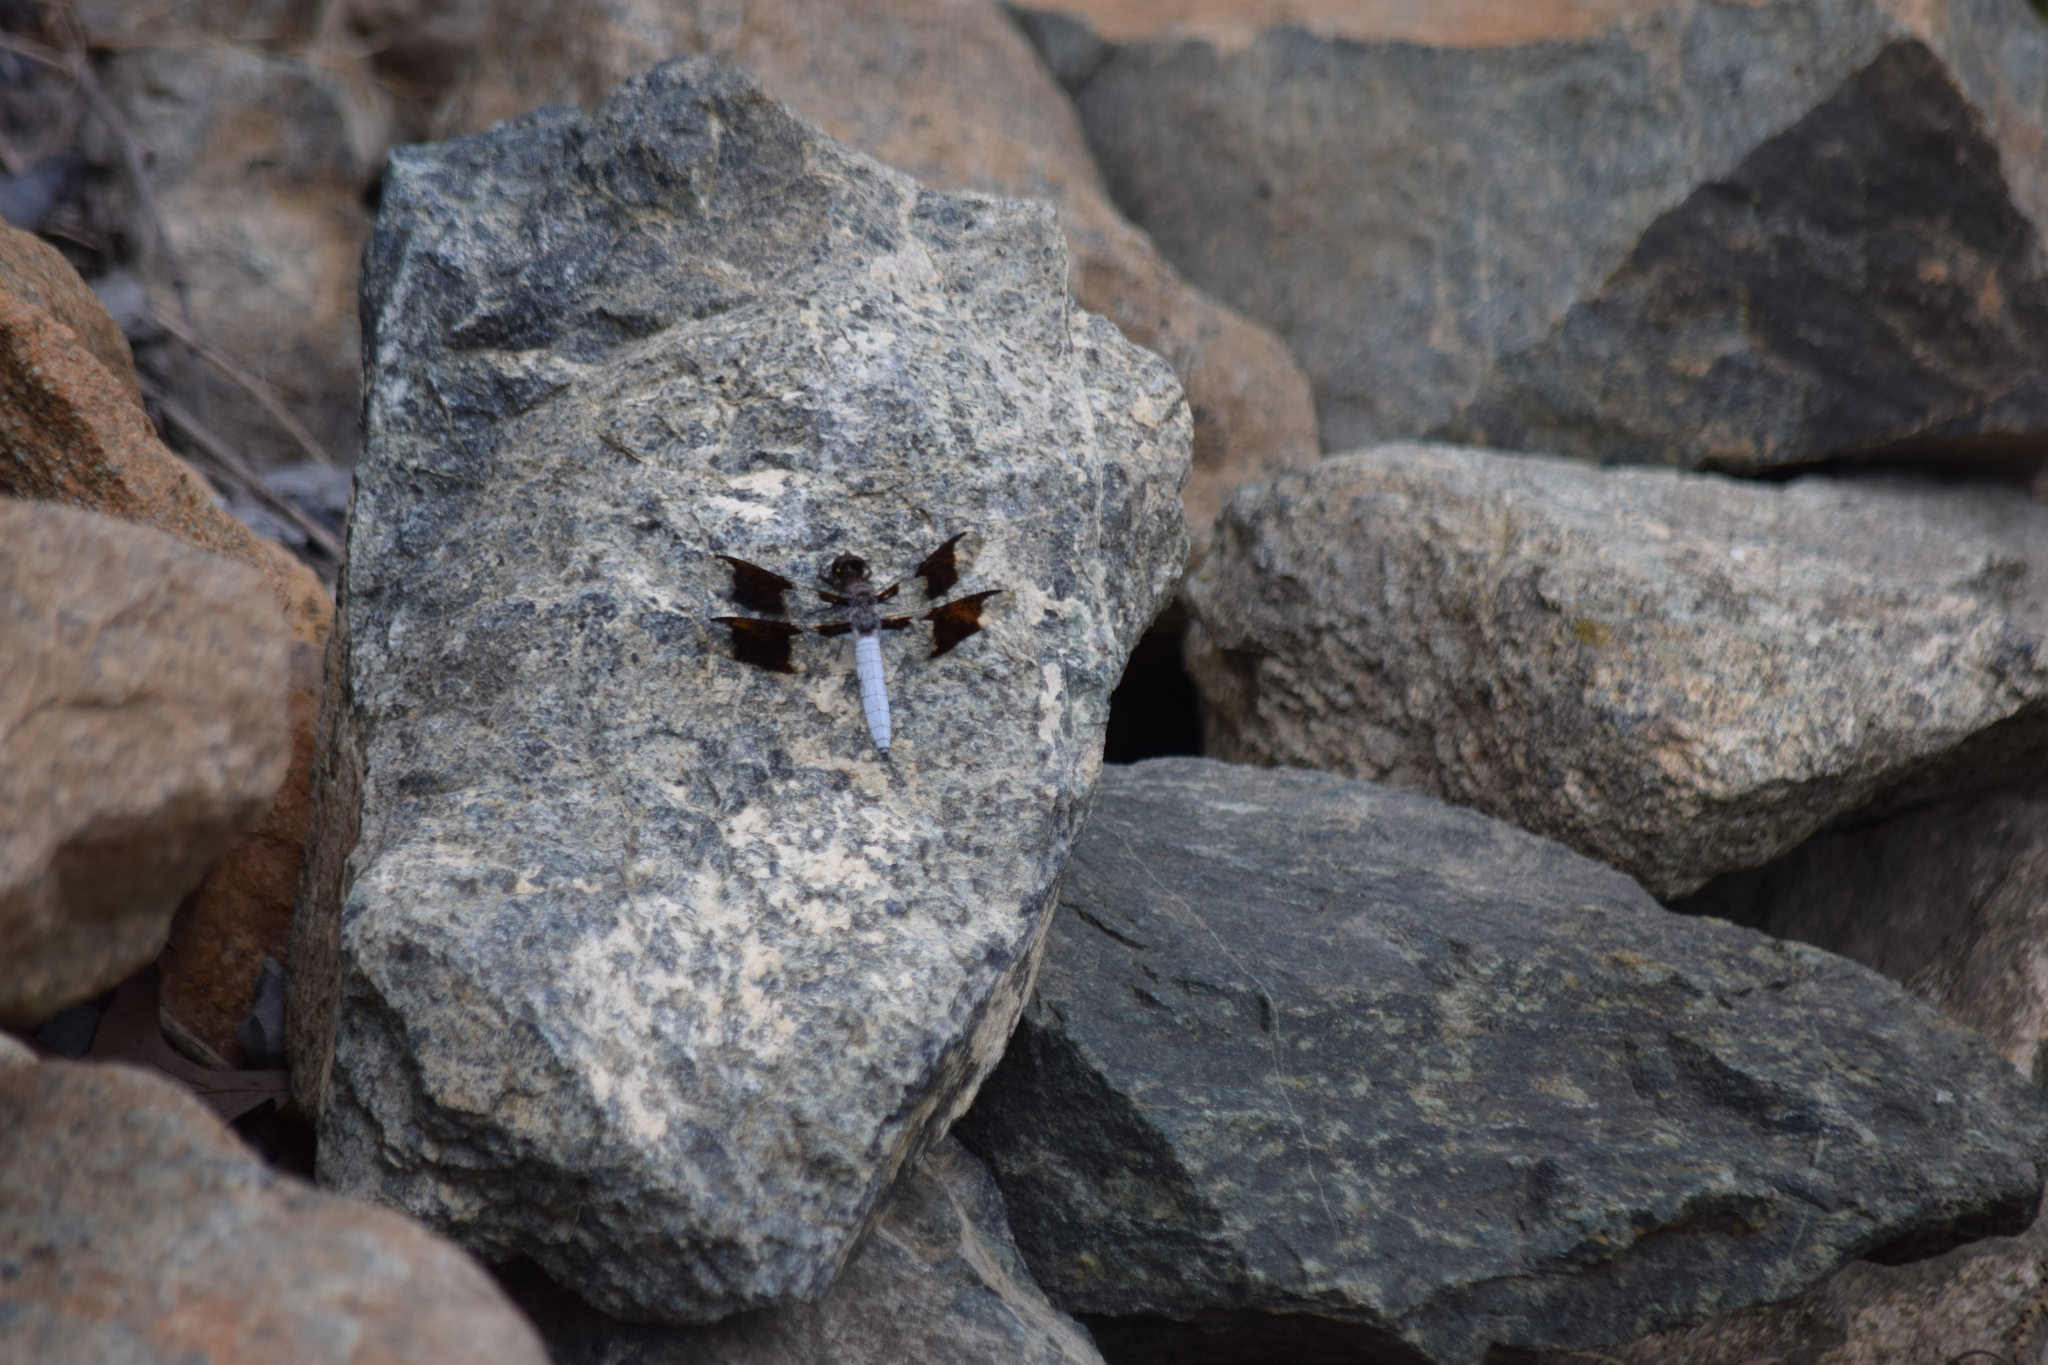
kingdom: Animalia
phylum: Arthropoda
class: Insecta
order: Odonata
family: Libellulidae
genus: Plathemis
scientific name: Plathemis lydia
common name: Common whitetail
